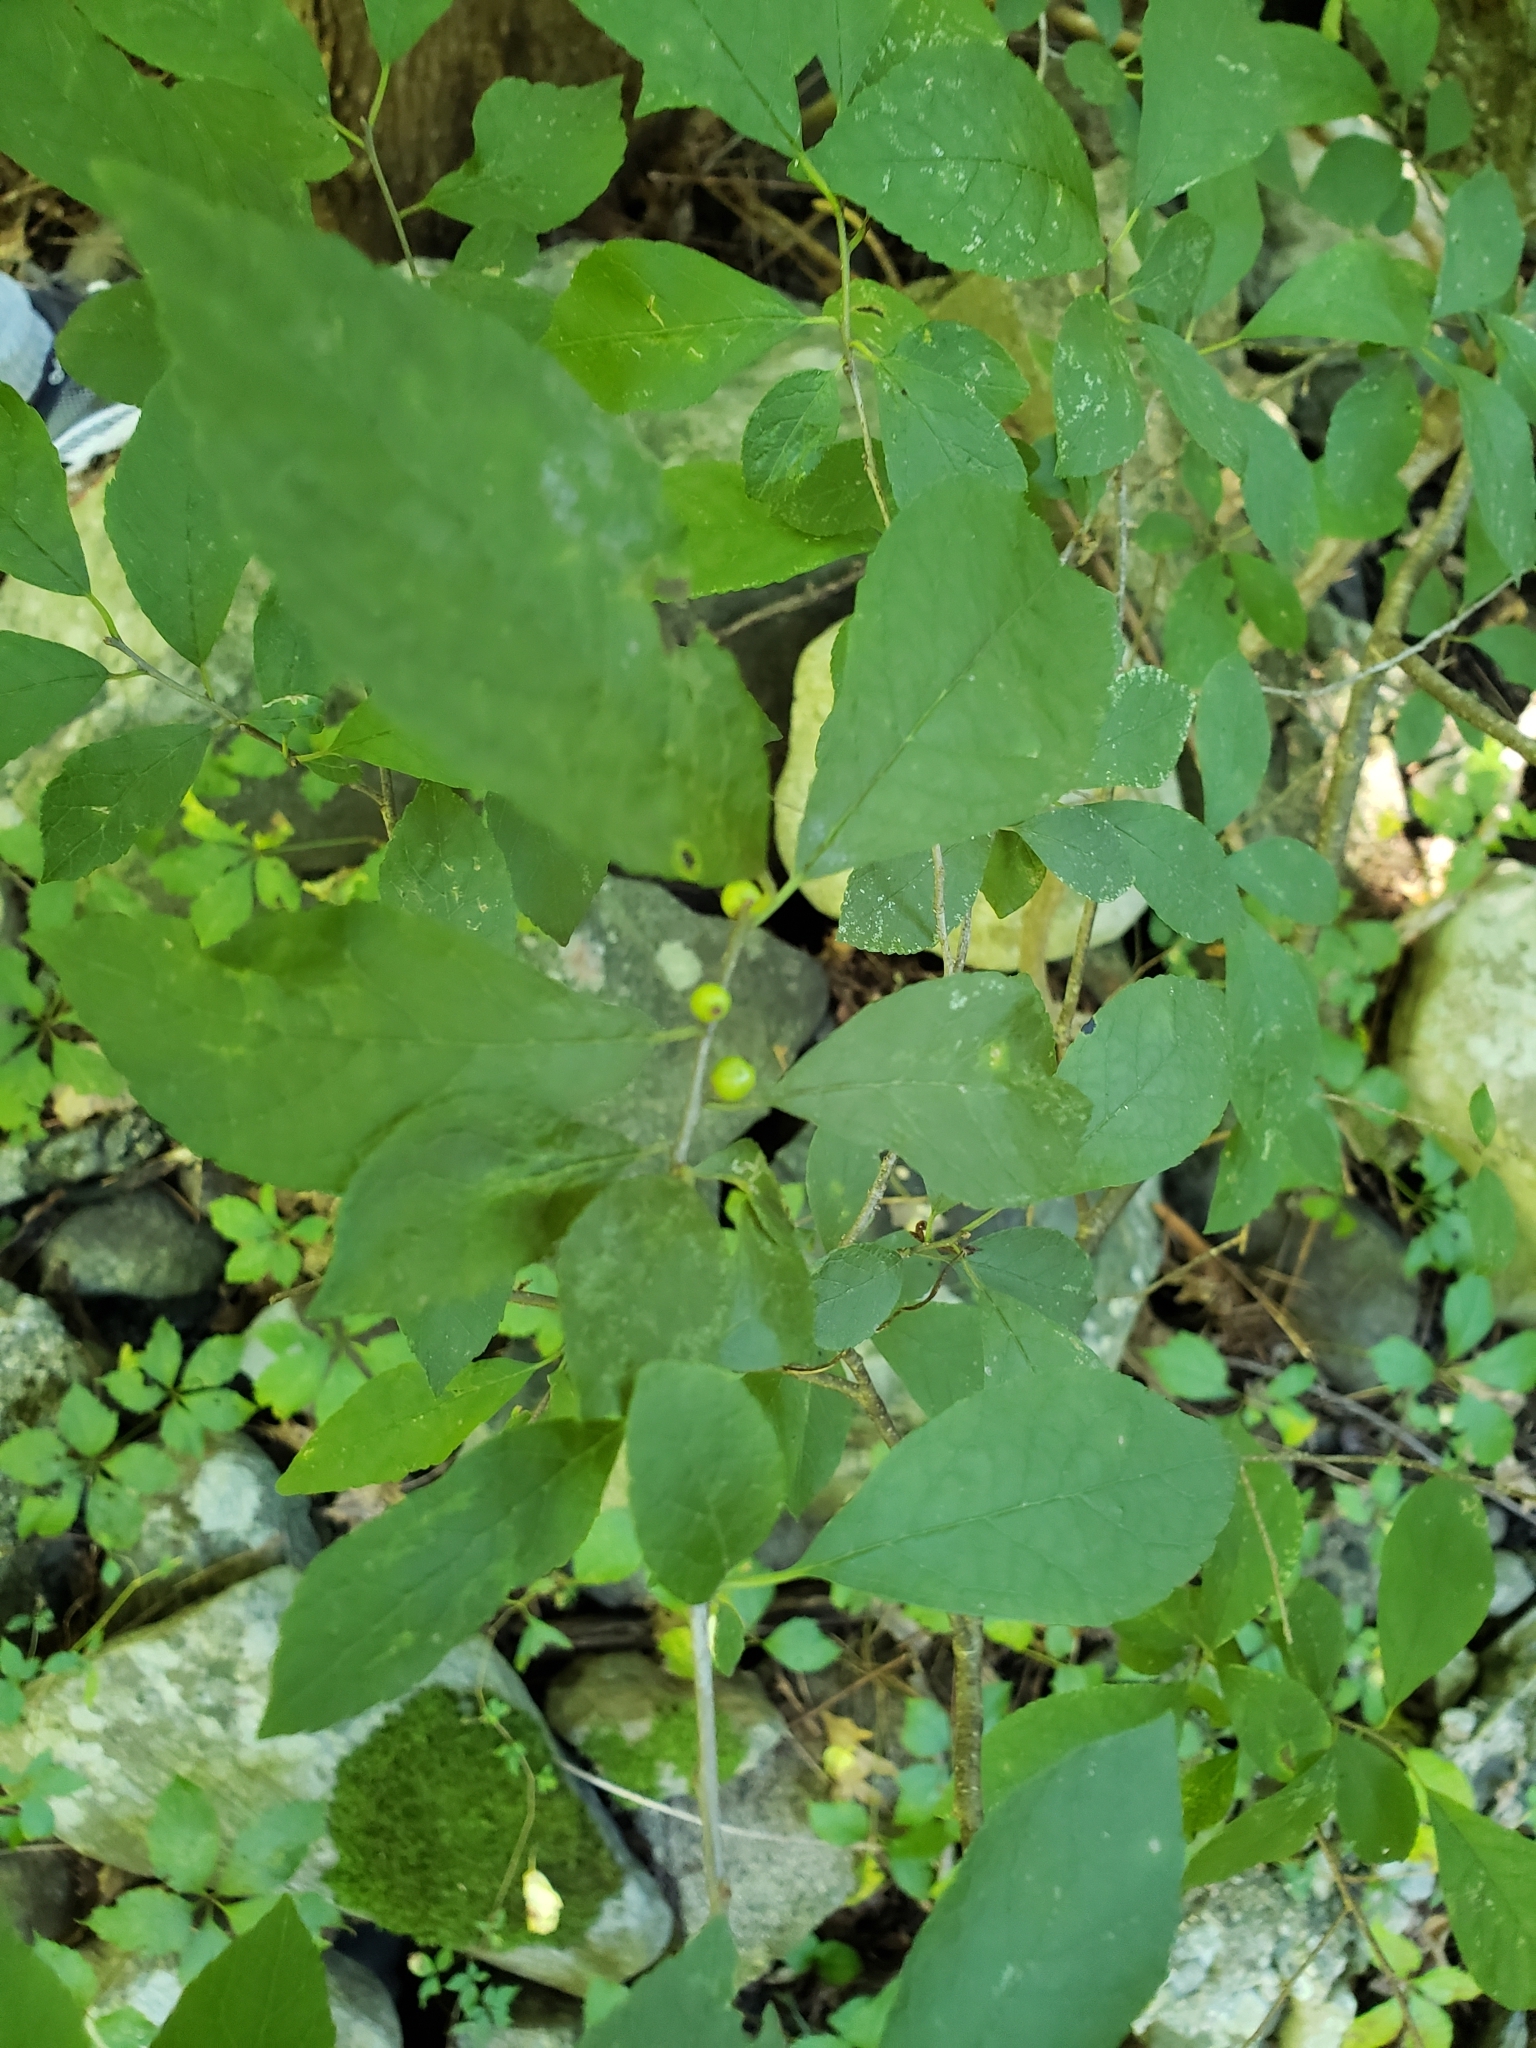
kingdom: Plantae
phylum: Tracheophyta
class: Magnoliopsida
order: Aquifoliales
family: Aquifoliaceae
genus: Ilex
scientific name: Ilex verticillata
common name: Virginia winterberry
